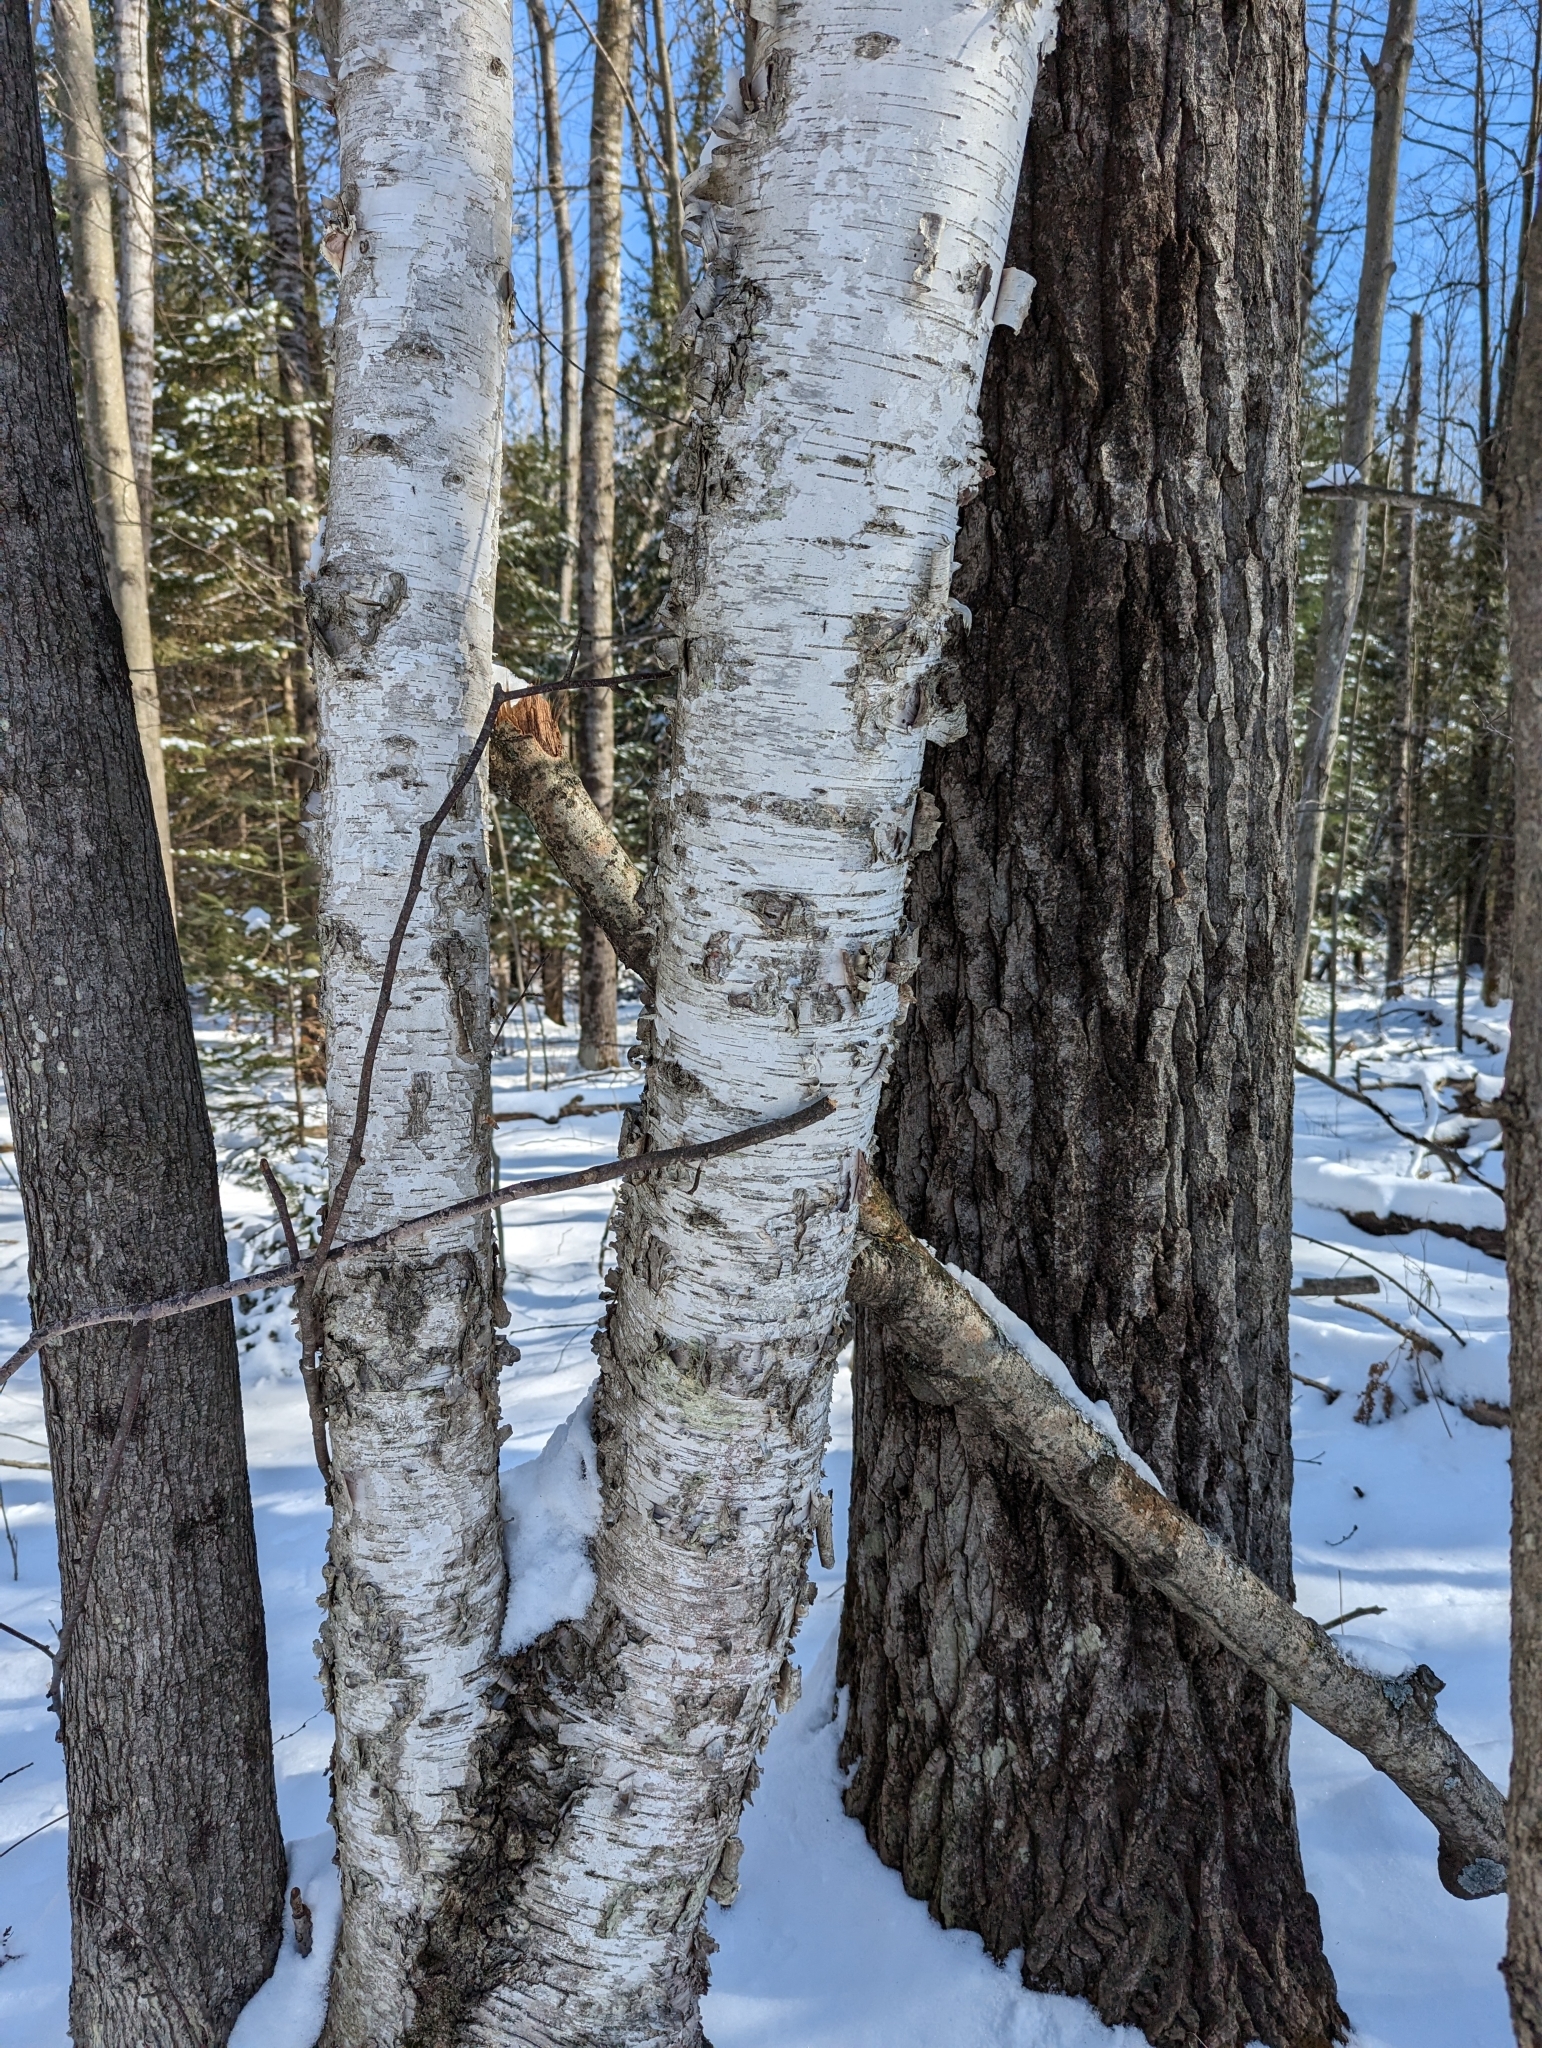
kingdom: Plantae
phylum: Tracheophyta
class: Magnoliopsida
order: Fagales
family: Betulaceae
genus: Betula
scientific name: Betula papyrifera
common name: Paper birch
